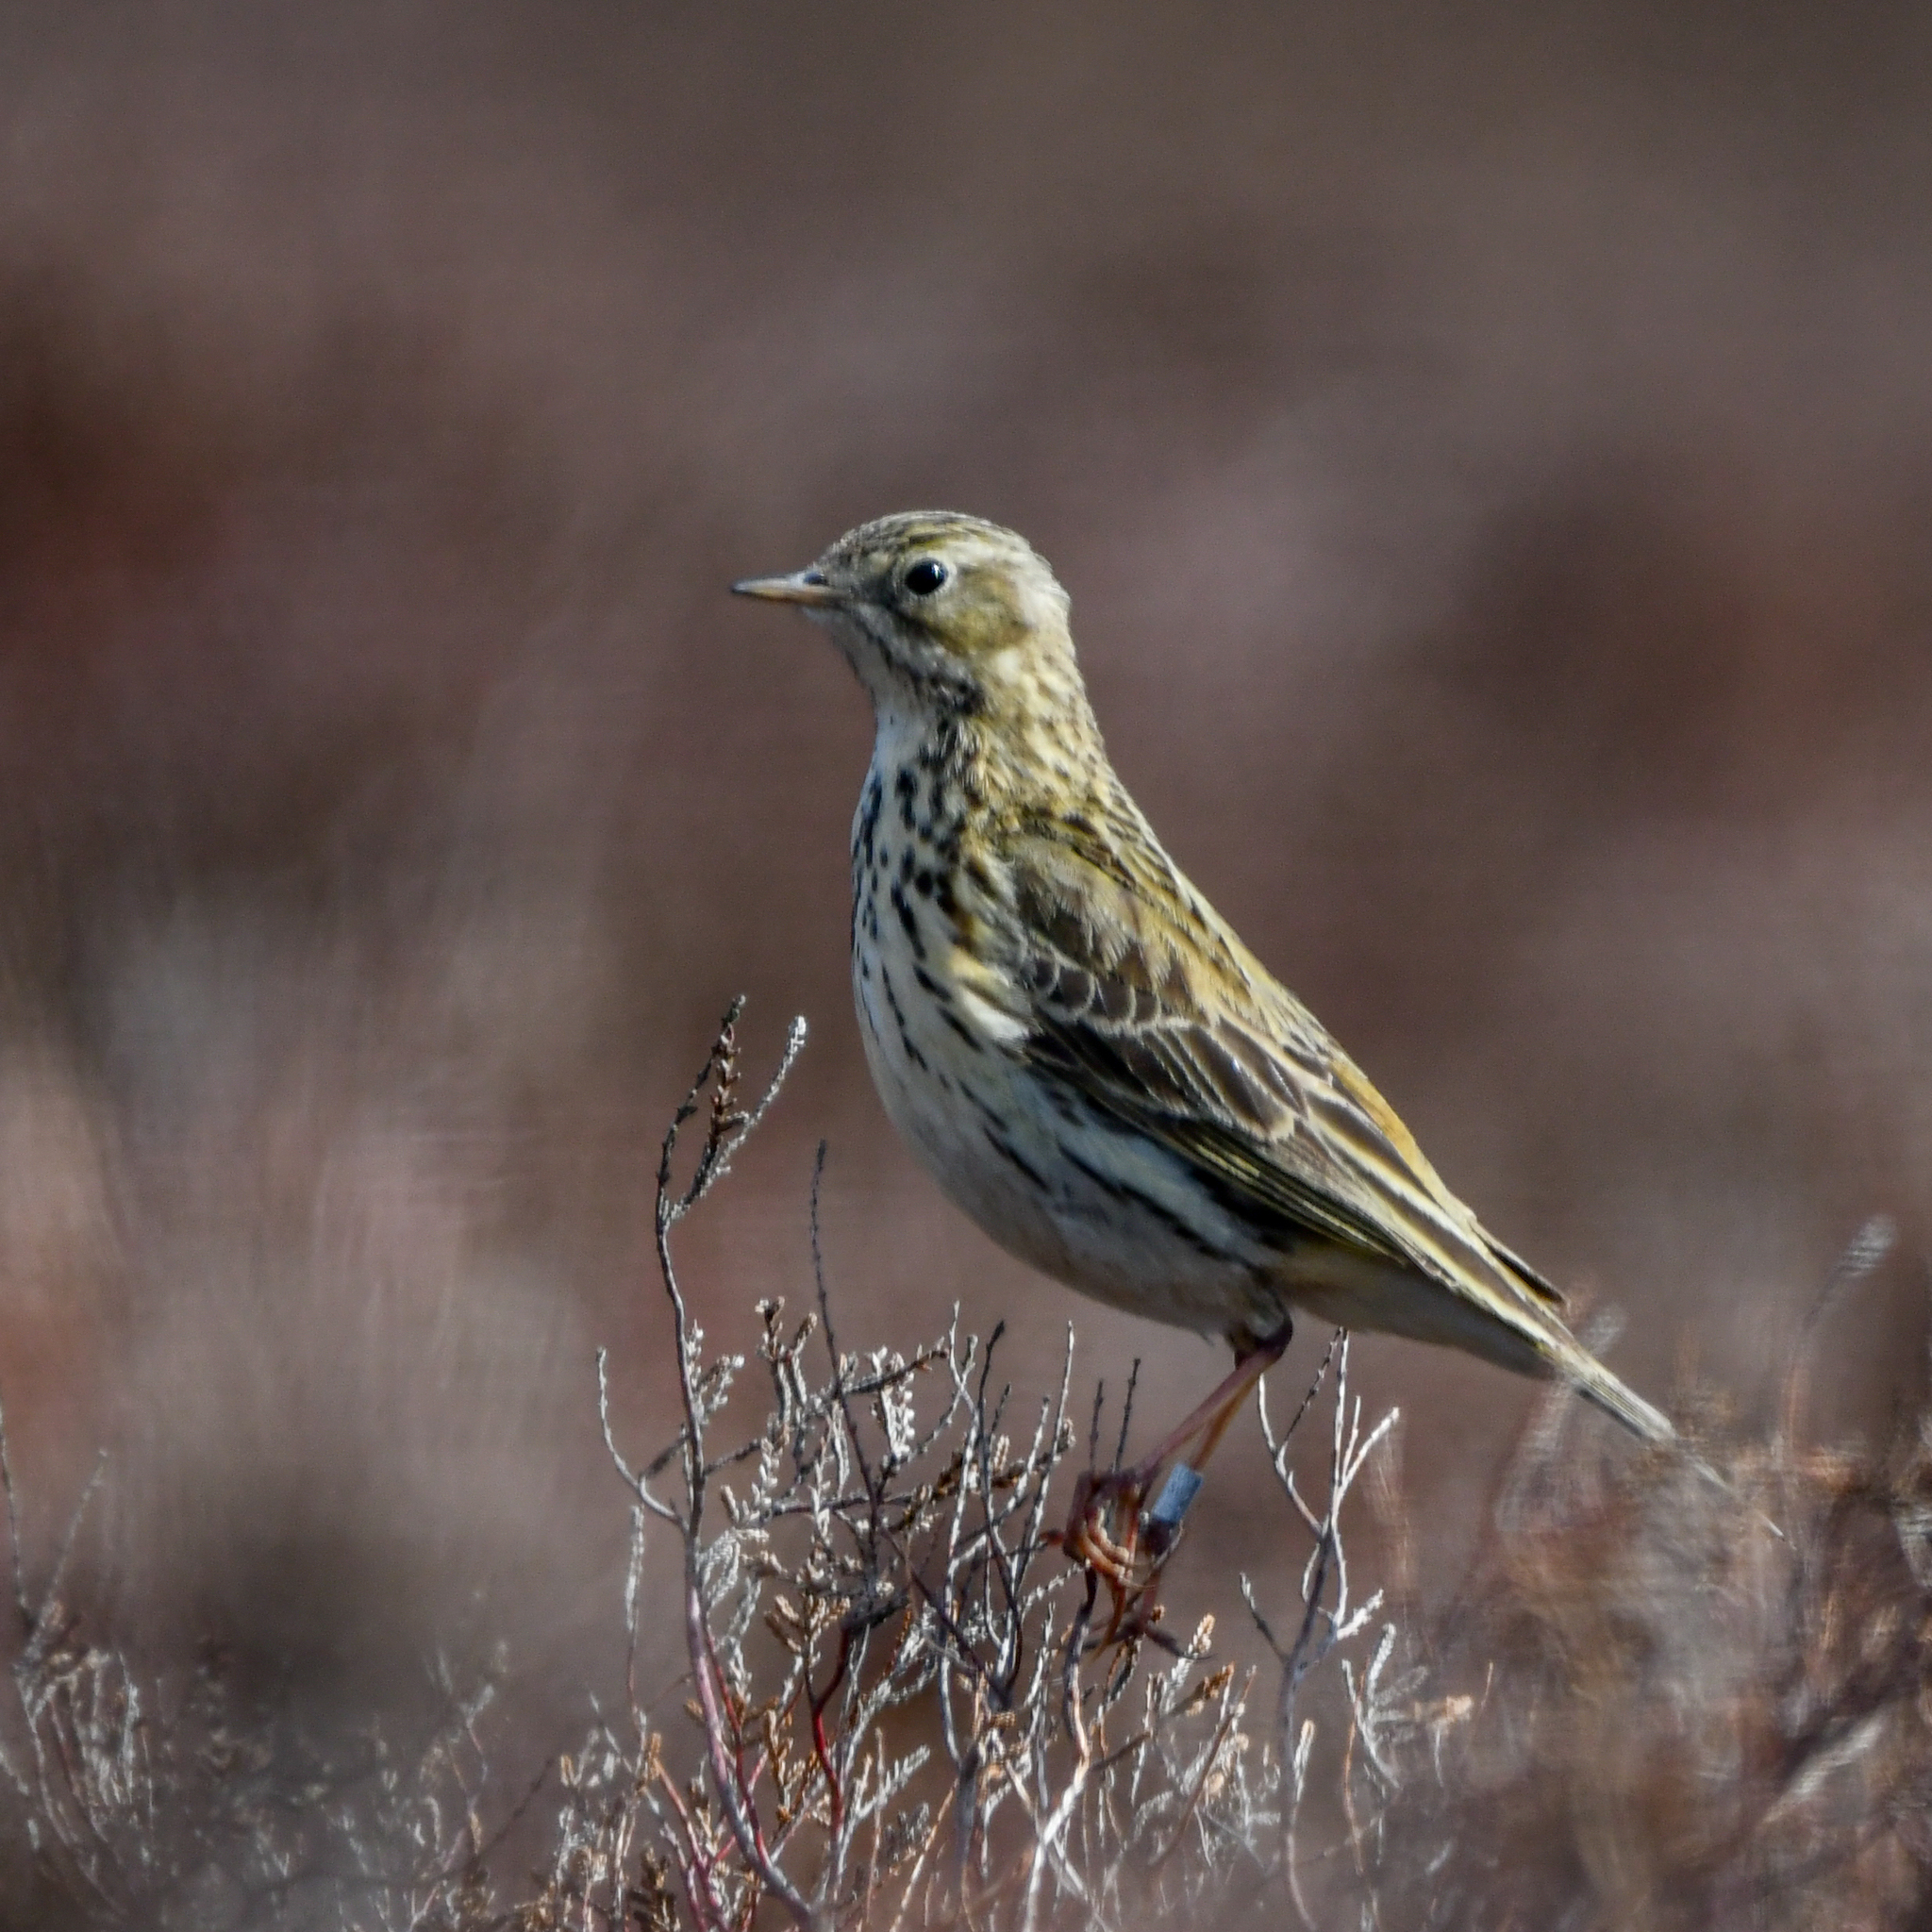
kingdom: Animalia
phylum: Chordata
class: Aves
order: Passeriformes
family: Motacillidae
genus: Anthus
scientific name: Anthus pratensis
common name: Meadow pipit
